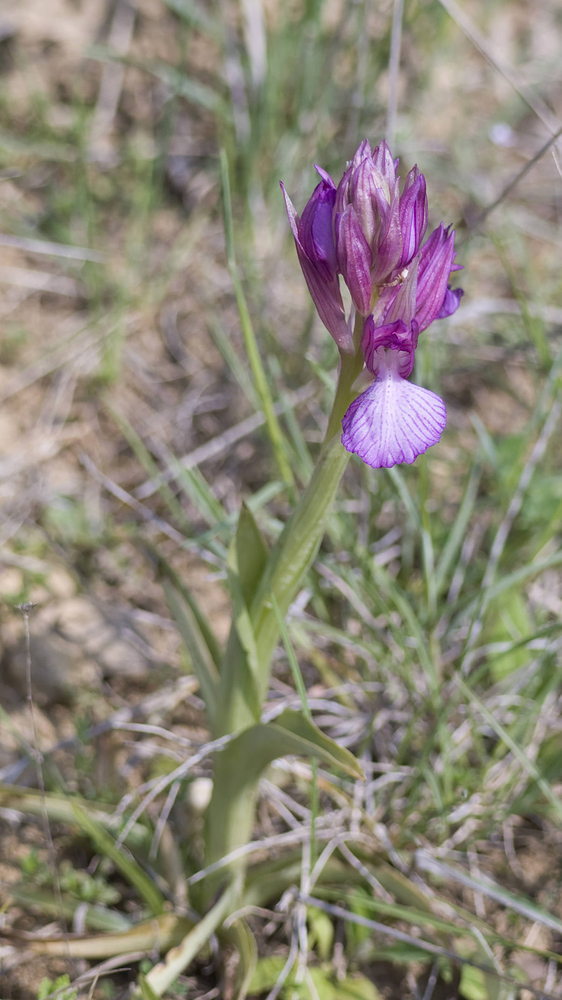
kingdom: Plantae
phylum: Tracheophyta
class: Liliopsida
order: Asparagales
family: Orchidaceae
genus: Anacamptis
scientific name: Anacamptis papilionacea
